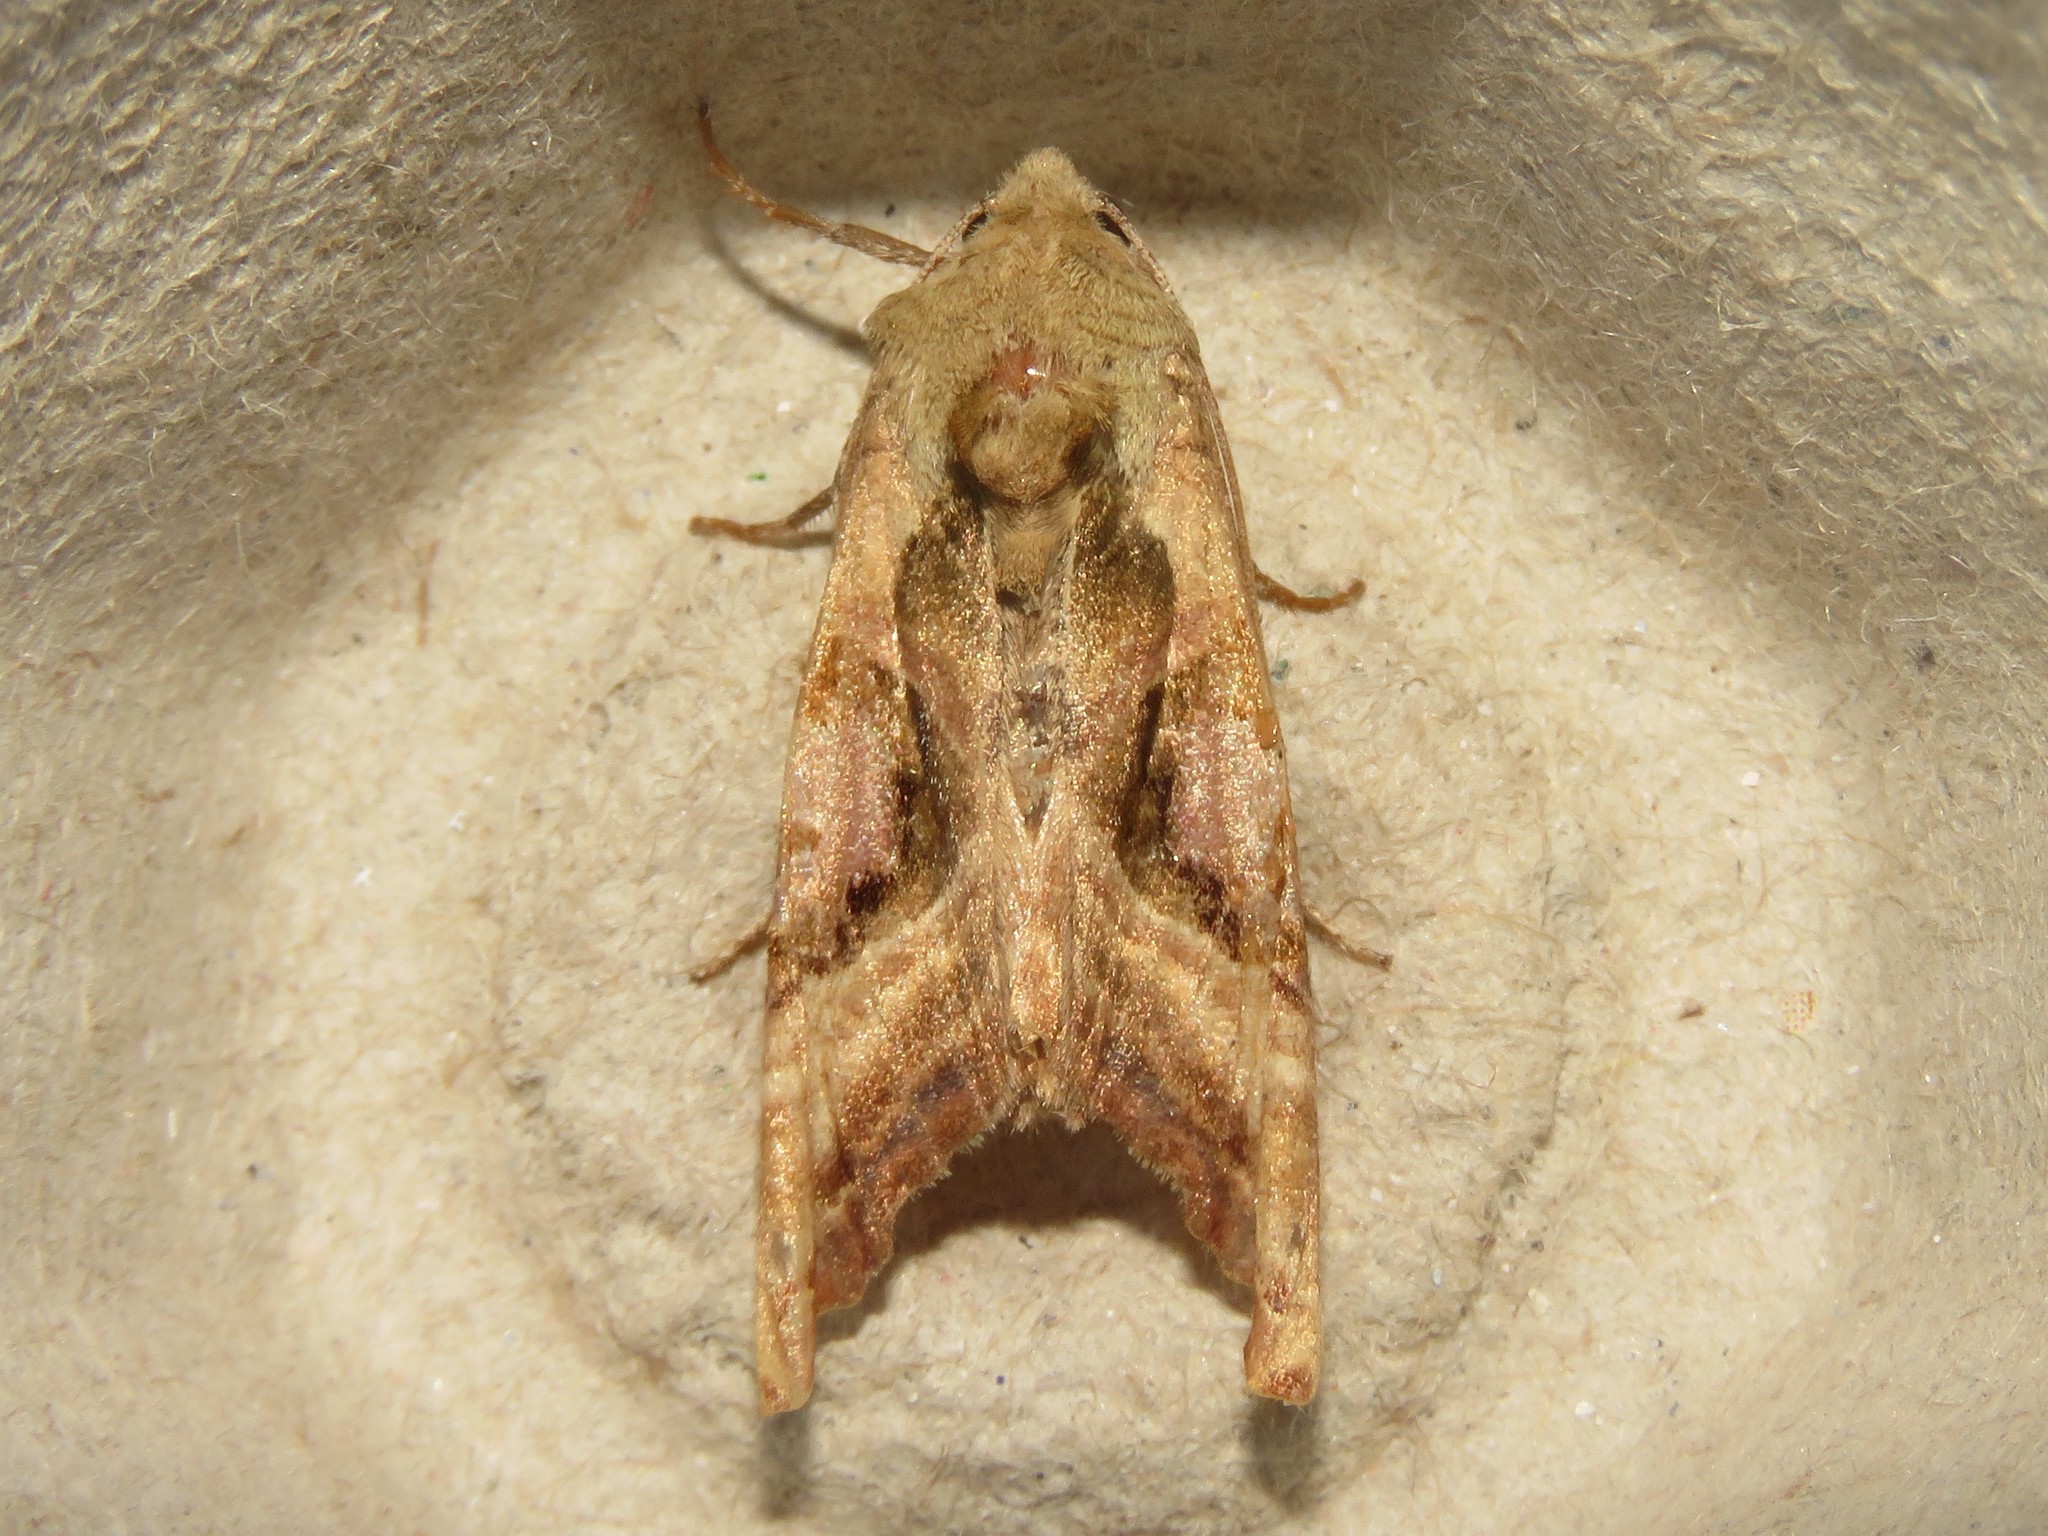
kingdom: Animalia
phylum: Arthropoda
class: Insecta
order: Lepidoptera
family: Noctuidae
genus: Phlogophora
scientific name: Phlogophora iris
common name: Olive angle shades
